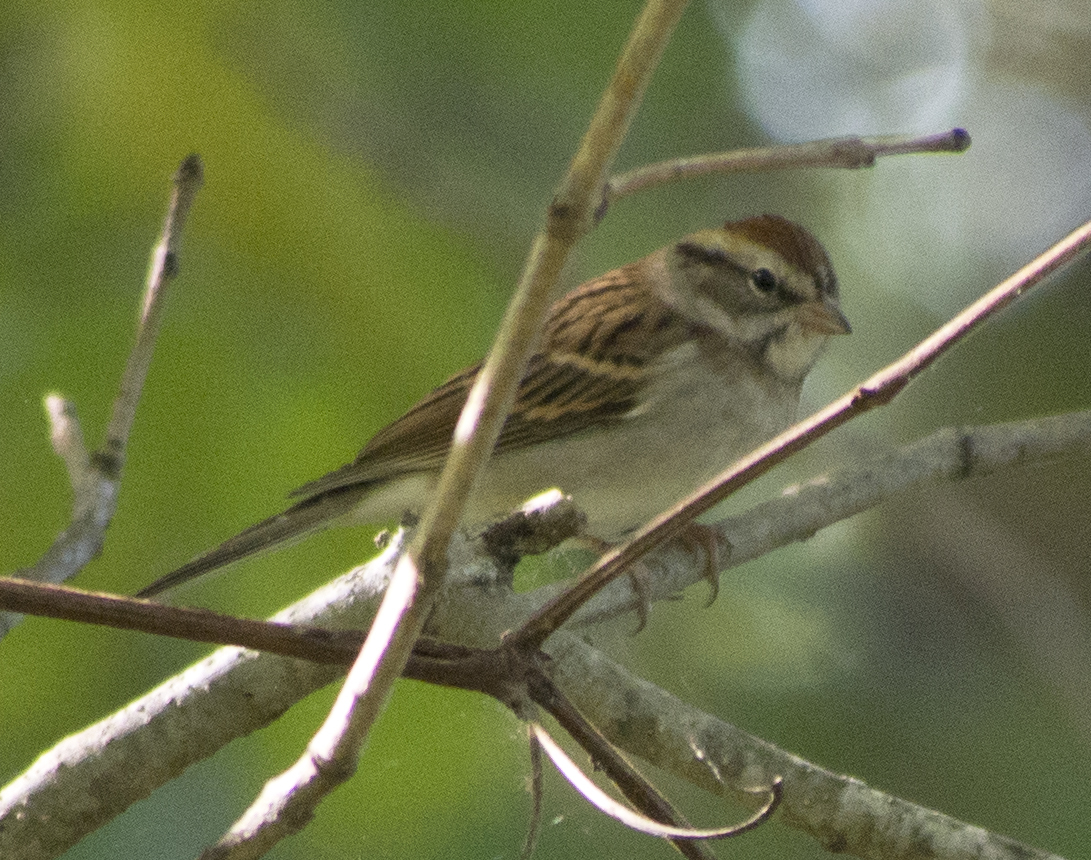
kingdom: Animalia
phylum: Chordata
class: Aves
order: Passeriformes
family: Passerellidae
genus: Spizella
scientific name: Spizella passerina
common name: Chipping sparrow
